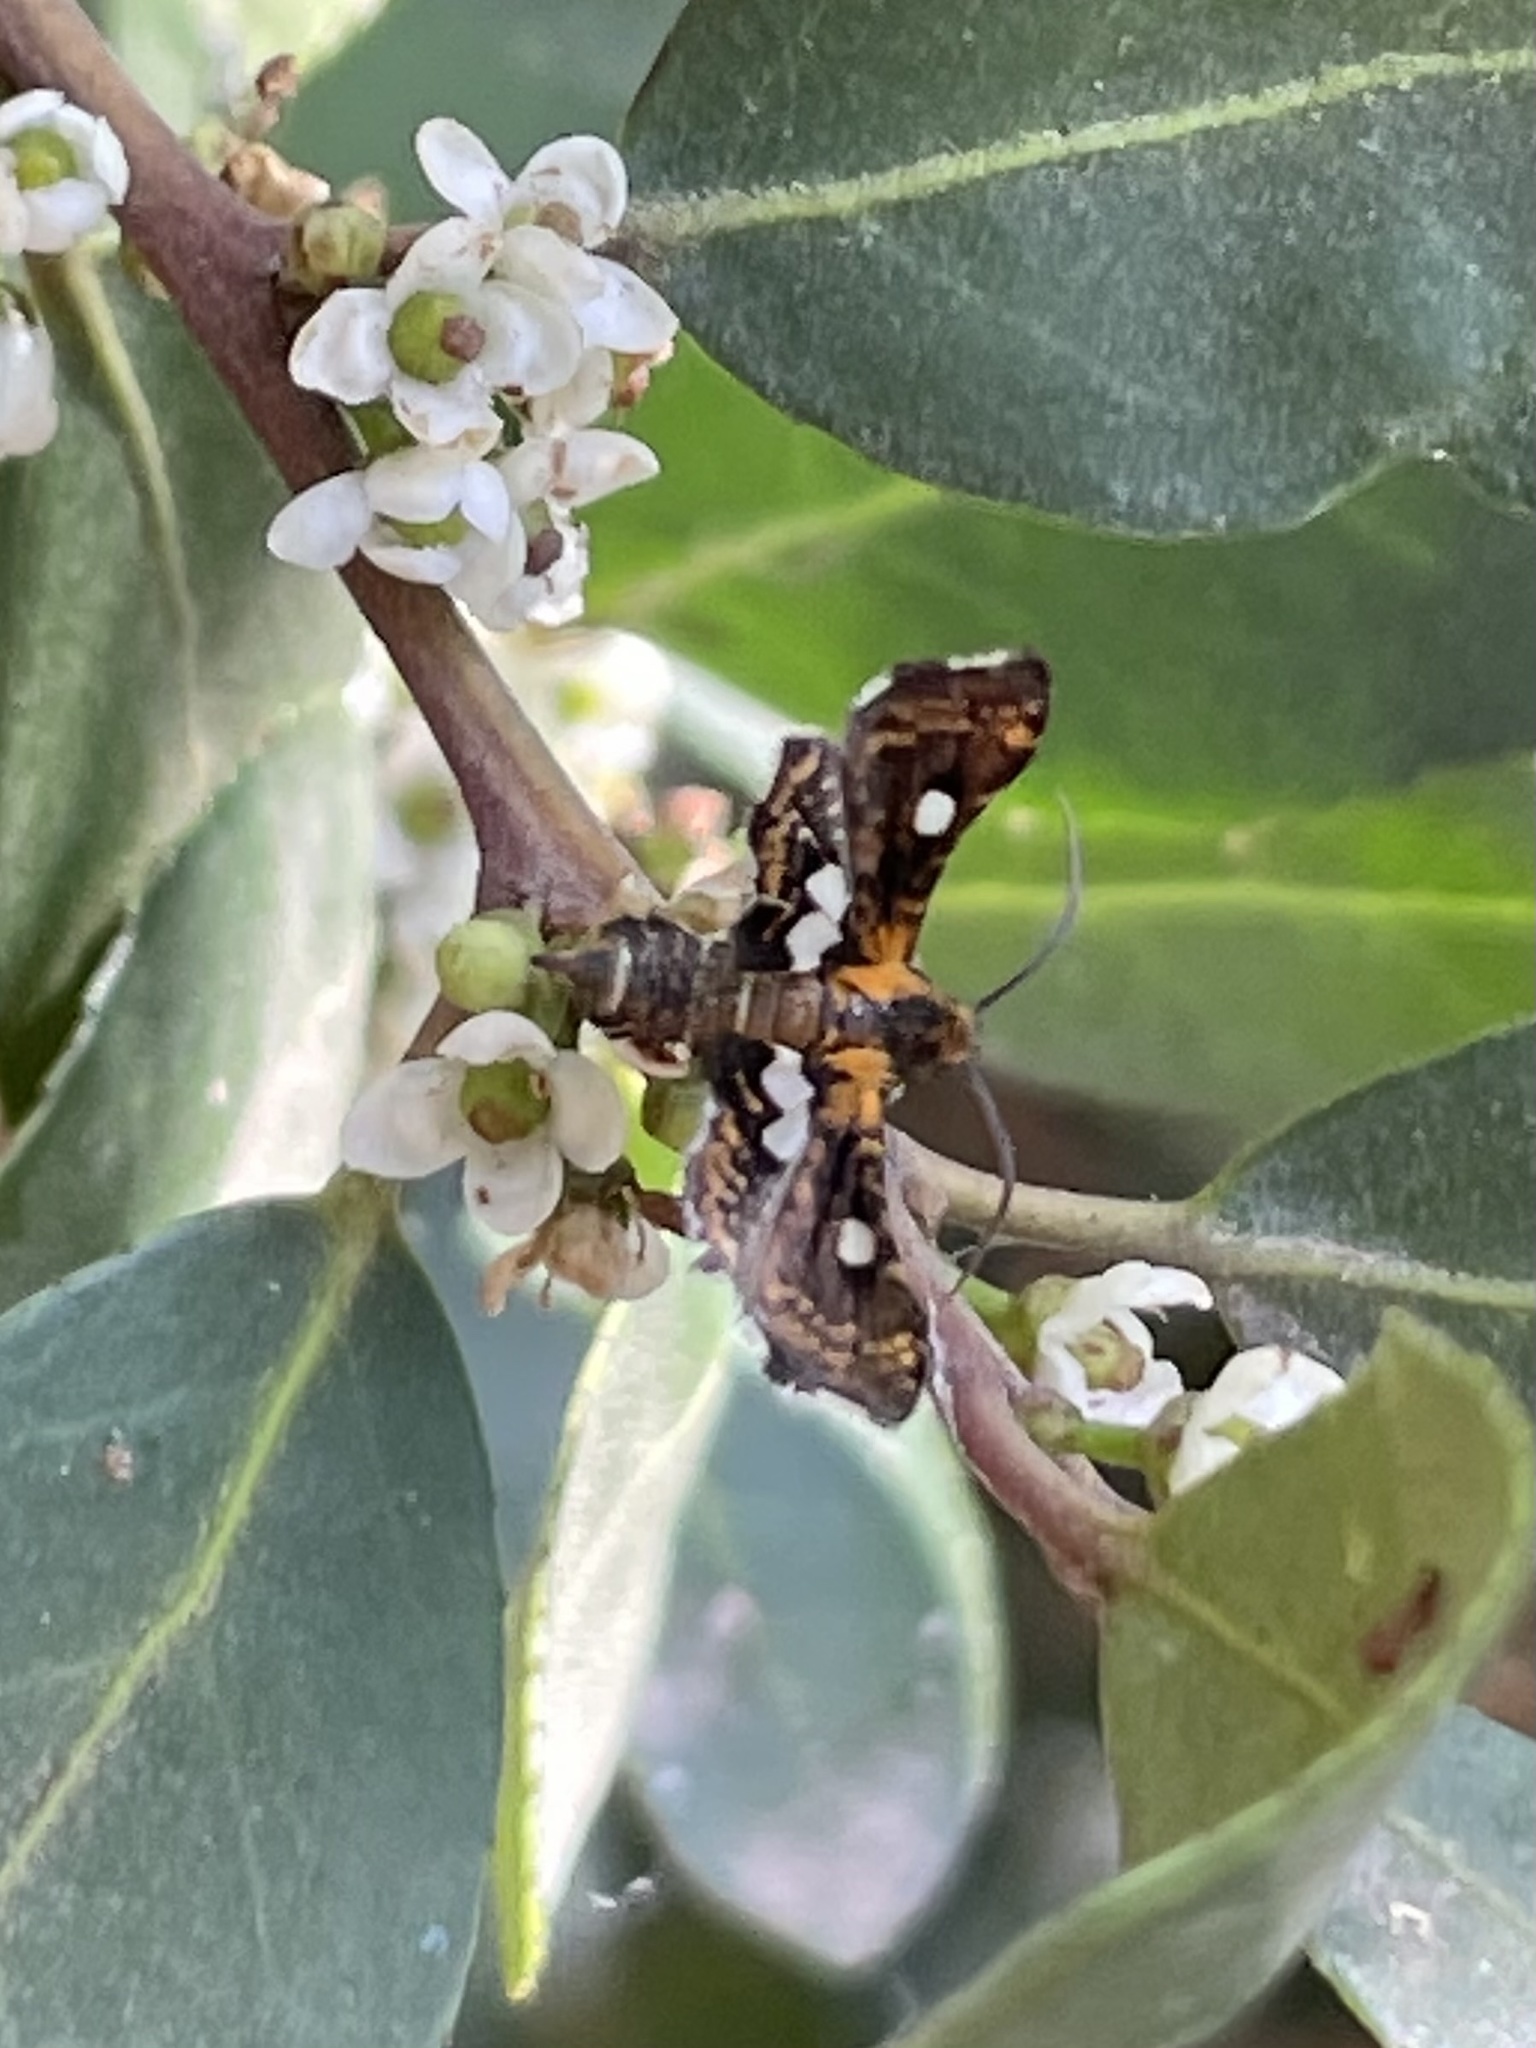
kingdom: Animalia
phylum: Arthropoda
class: Insecta
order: Lepidoptera
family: Thyrididae
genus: Thyris
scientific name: Thyris maculata
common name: Spotted thyris moth
